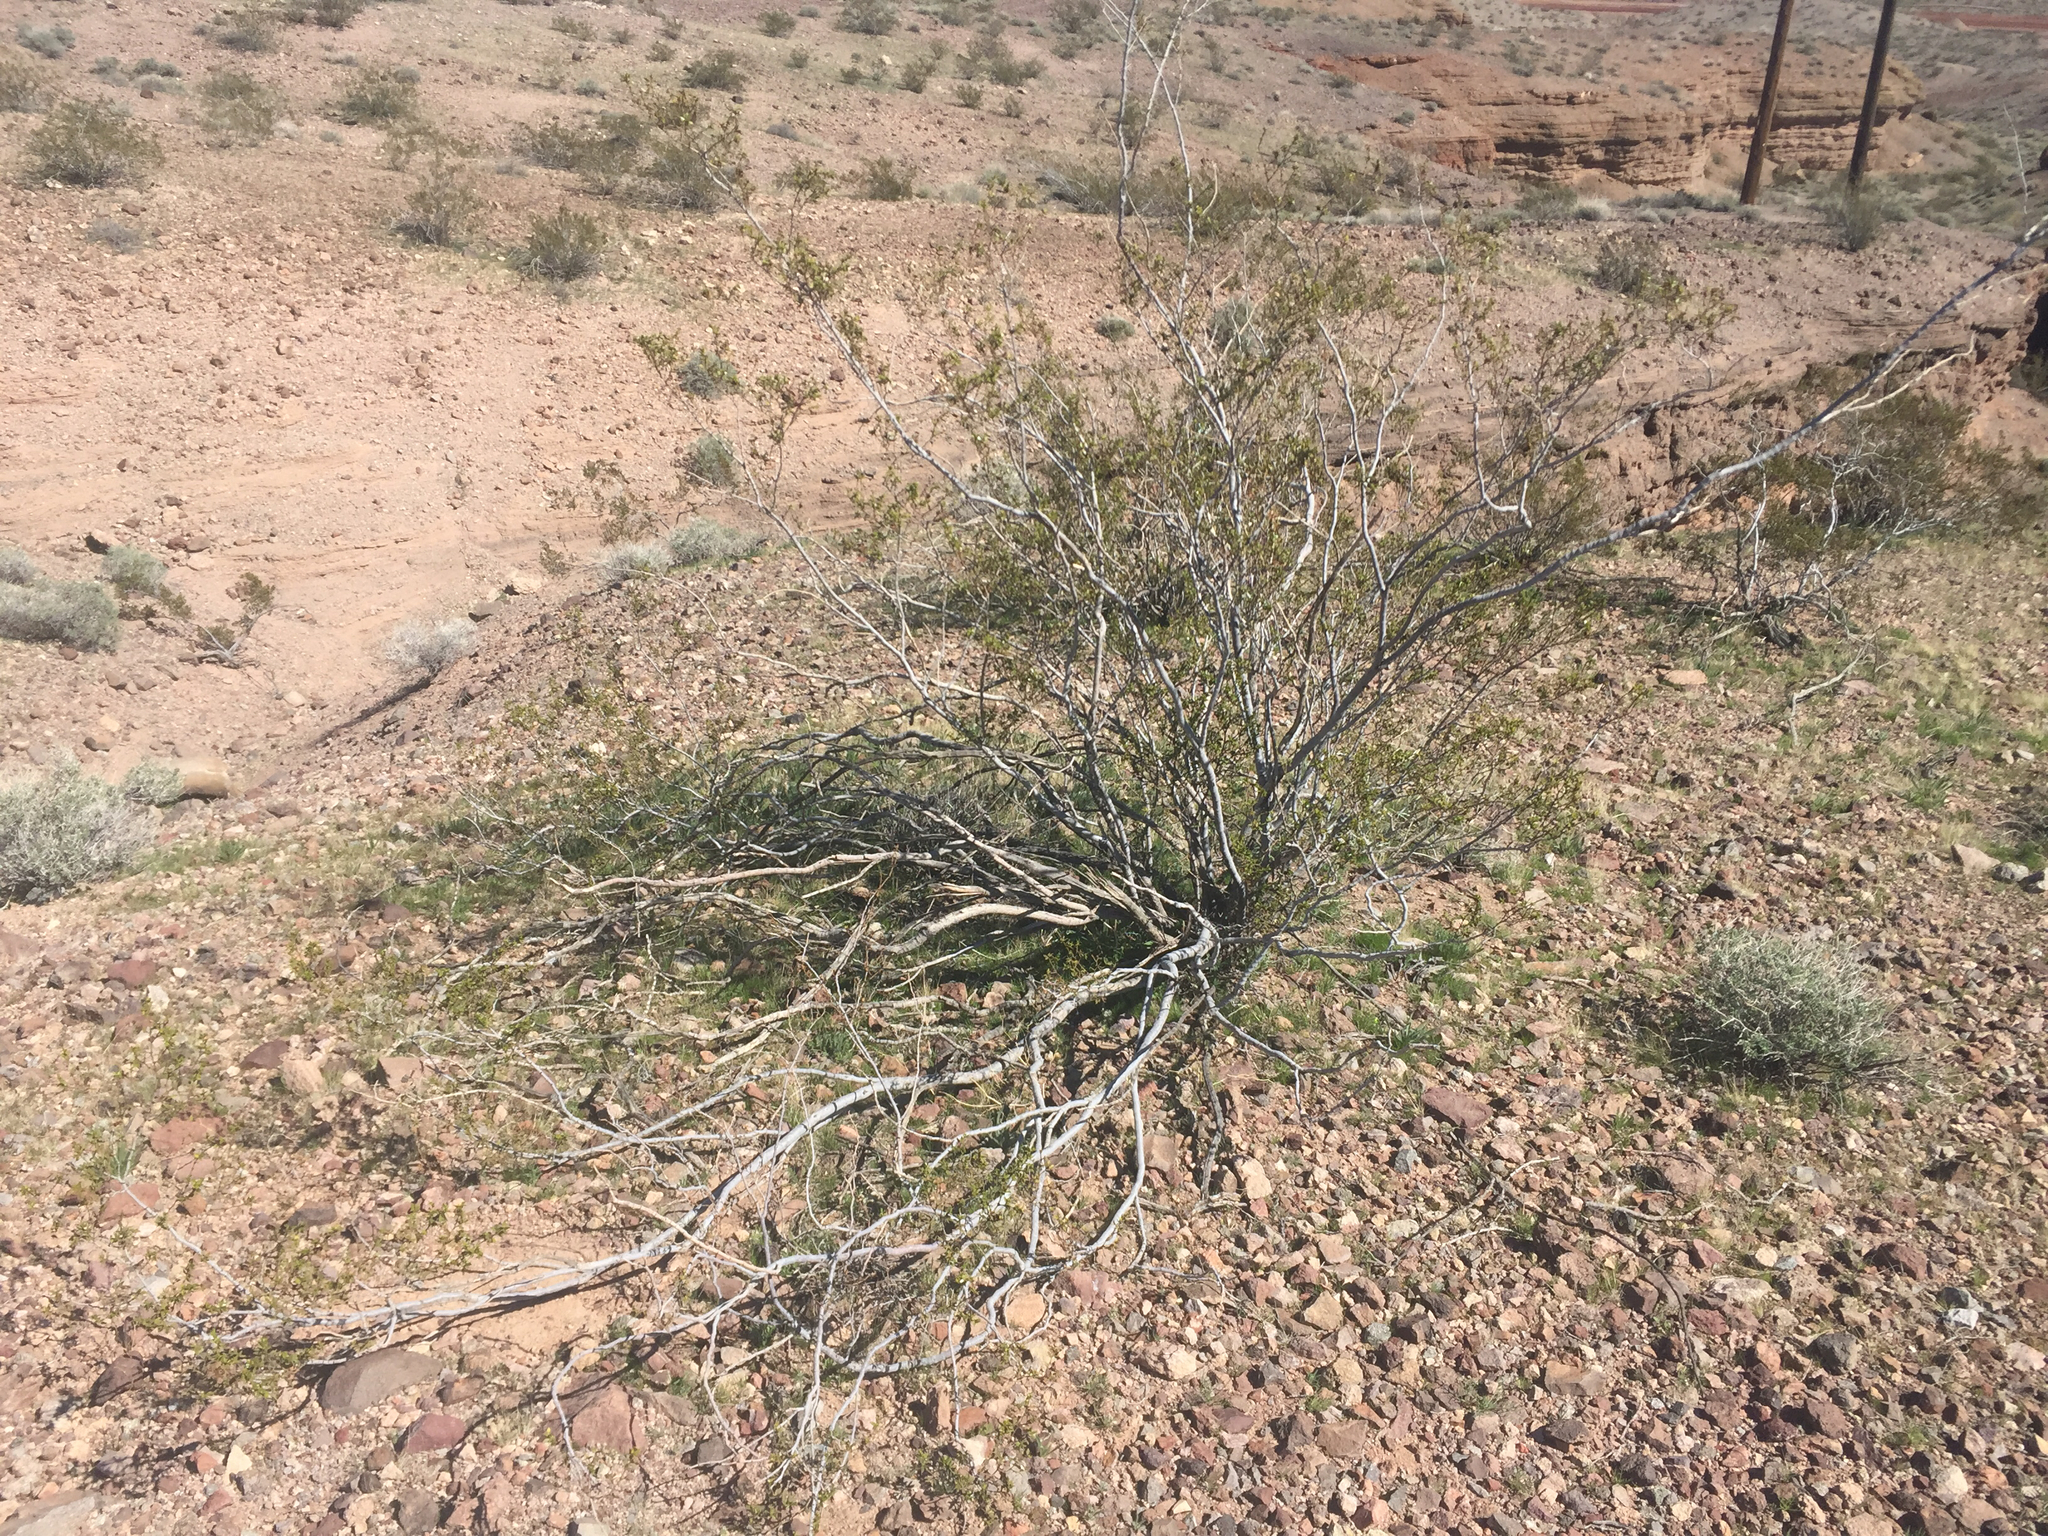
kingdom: Plantae
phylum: Tracheophyta
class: Magnoliopsida
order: Zygophyllales
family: Zygophyllaceae
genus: Larrea
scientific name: Larrea tridentata
